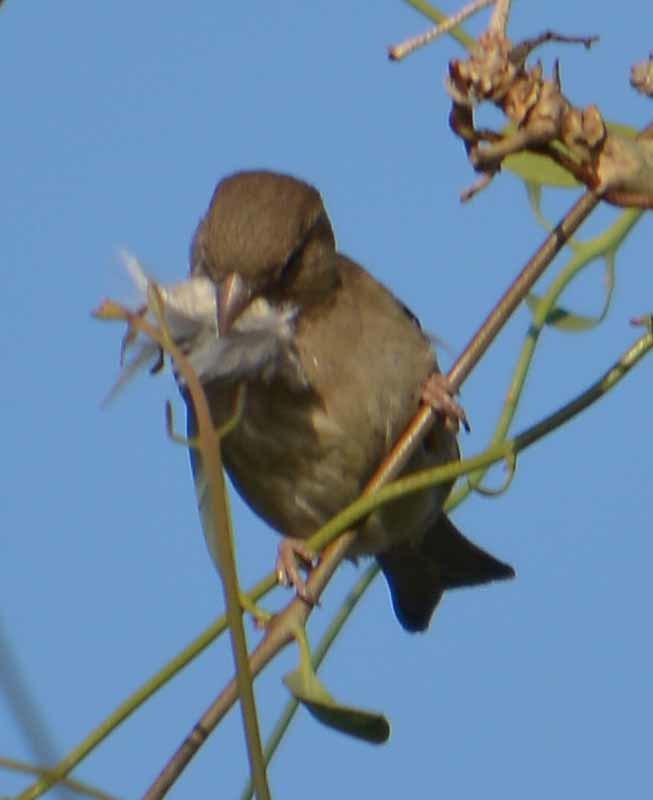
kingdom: Animalia
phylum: Chordata
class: Aves
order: Passeriformes
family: Passeridae
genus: Passer
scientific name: Passer domesticus
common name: House sparrow
